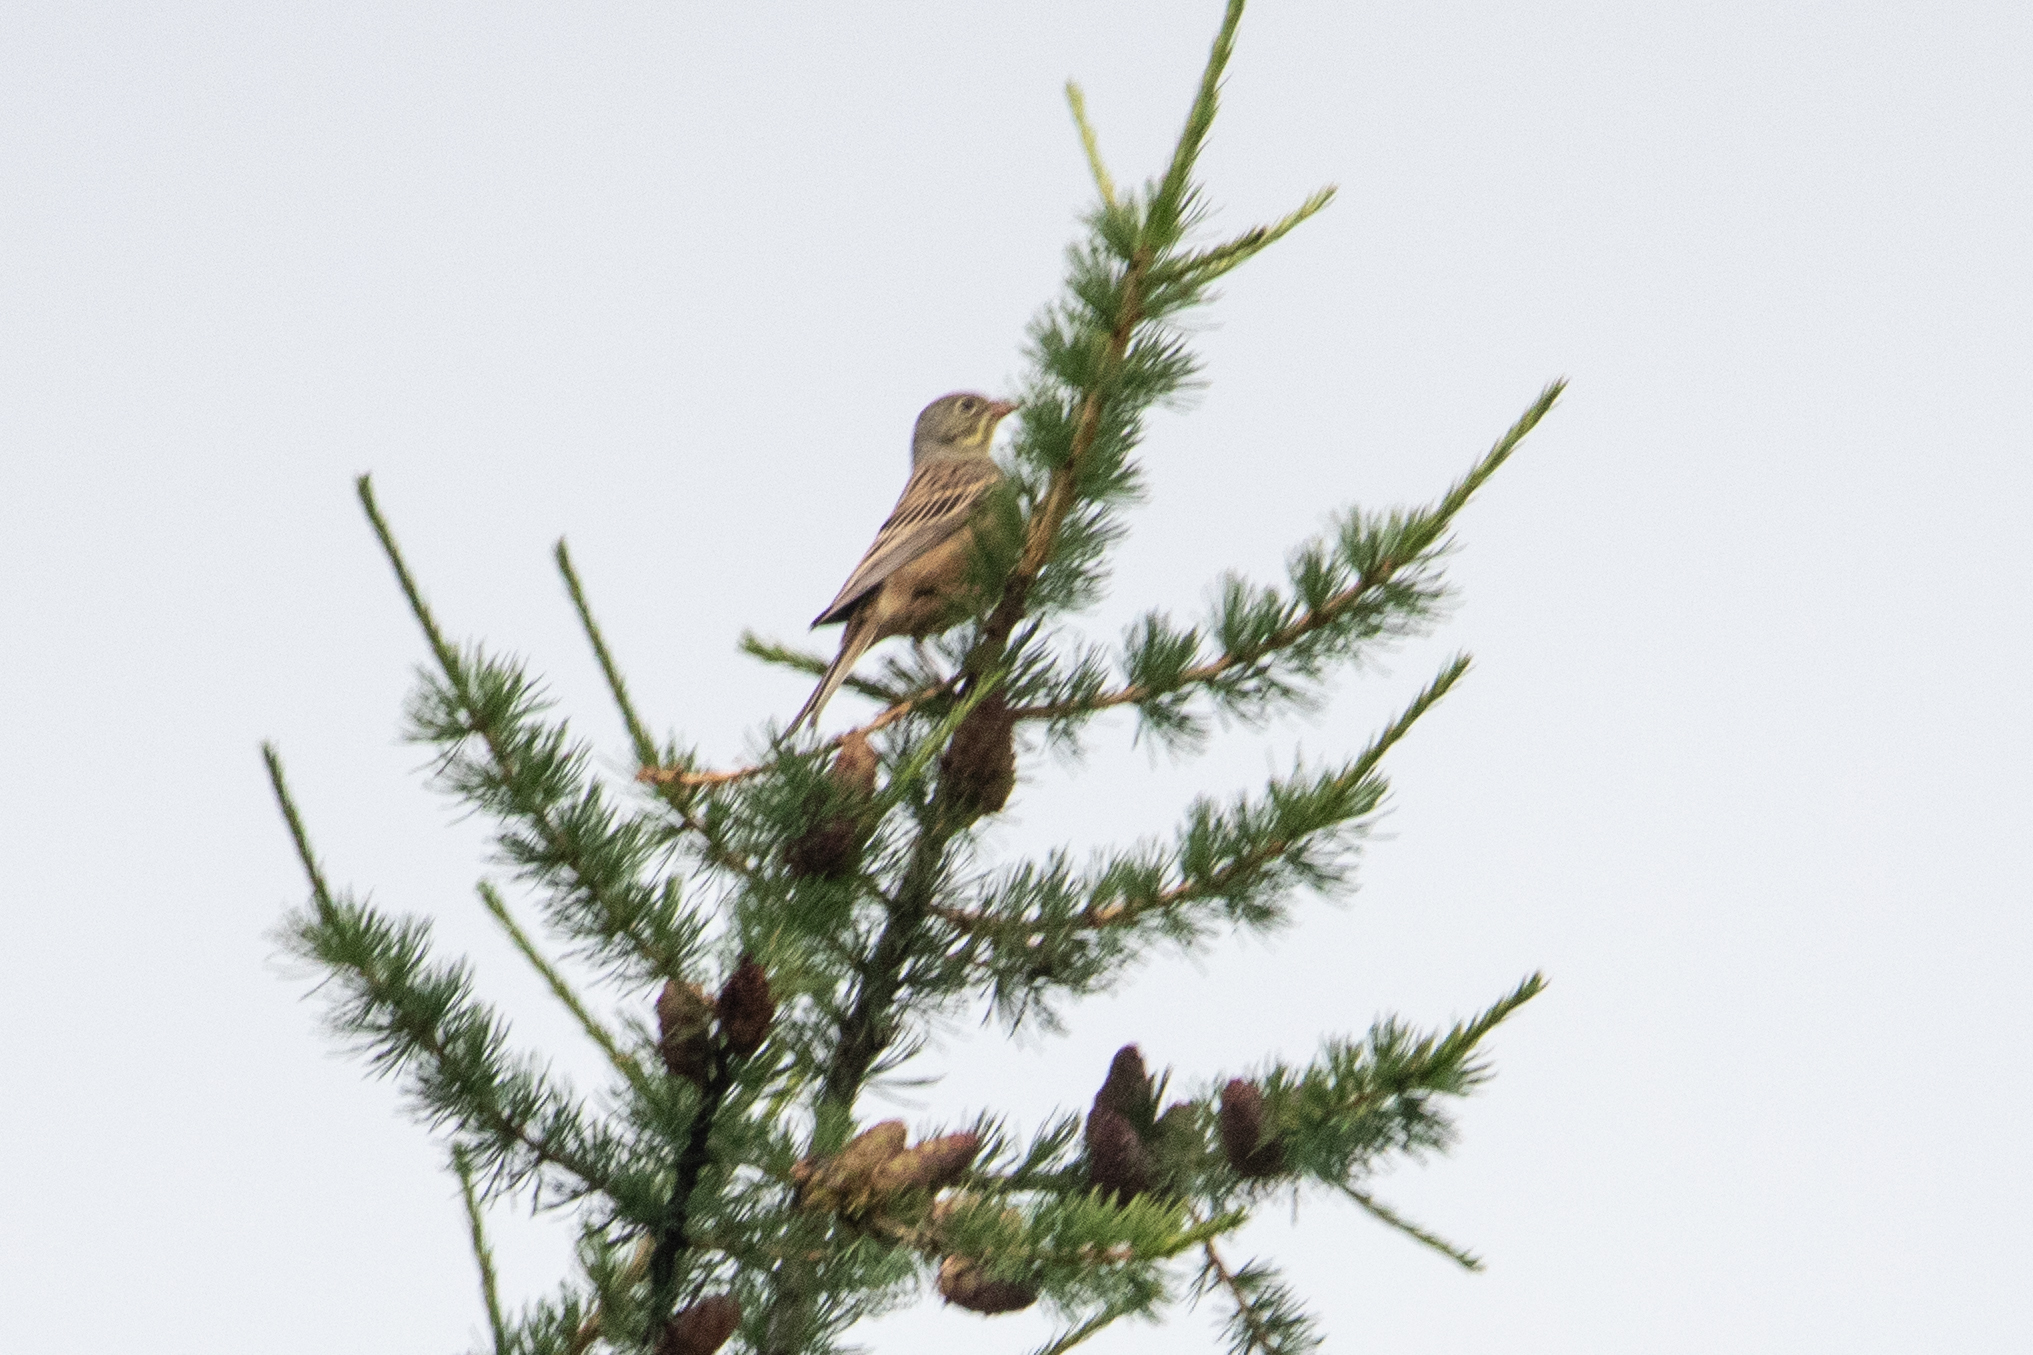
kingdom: Animalia
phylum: Chordata
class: Aves
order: Passeriformes
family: Emberizidae
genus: Emberiza
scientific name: Emberiza hortulana
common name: Ortolan bunting
